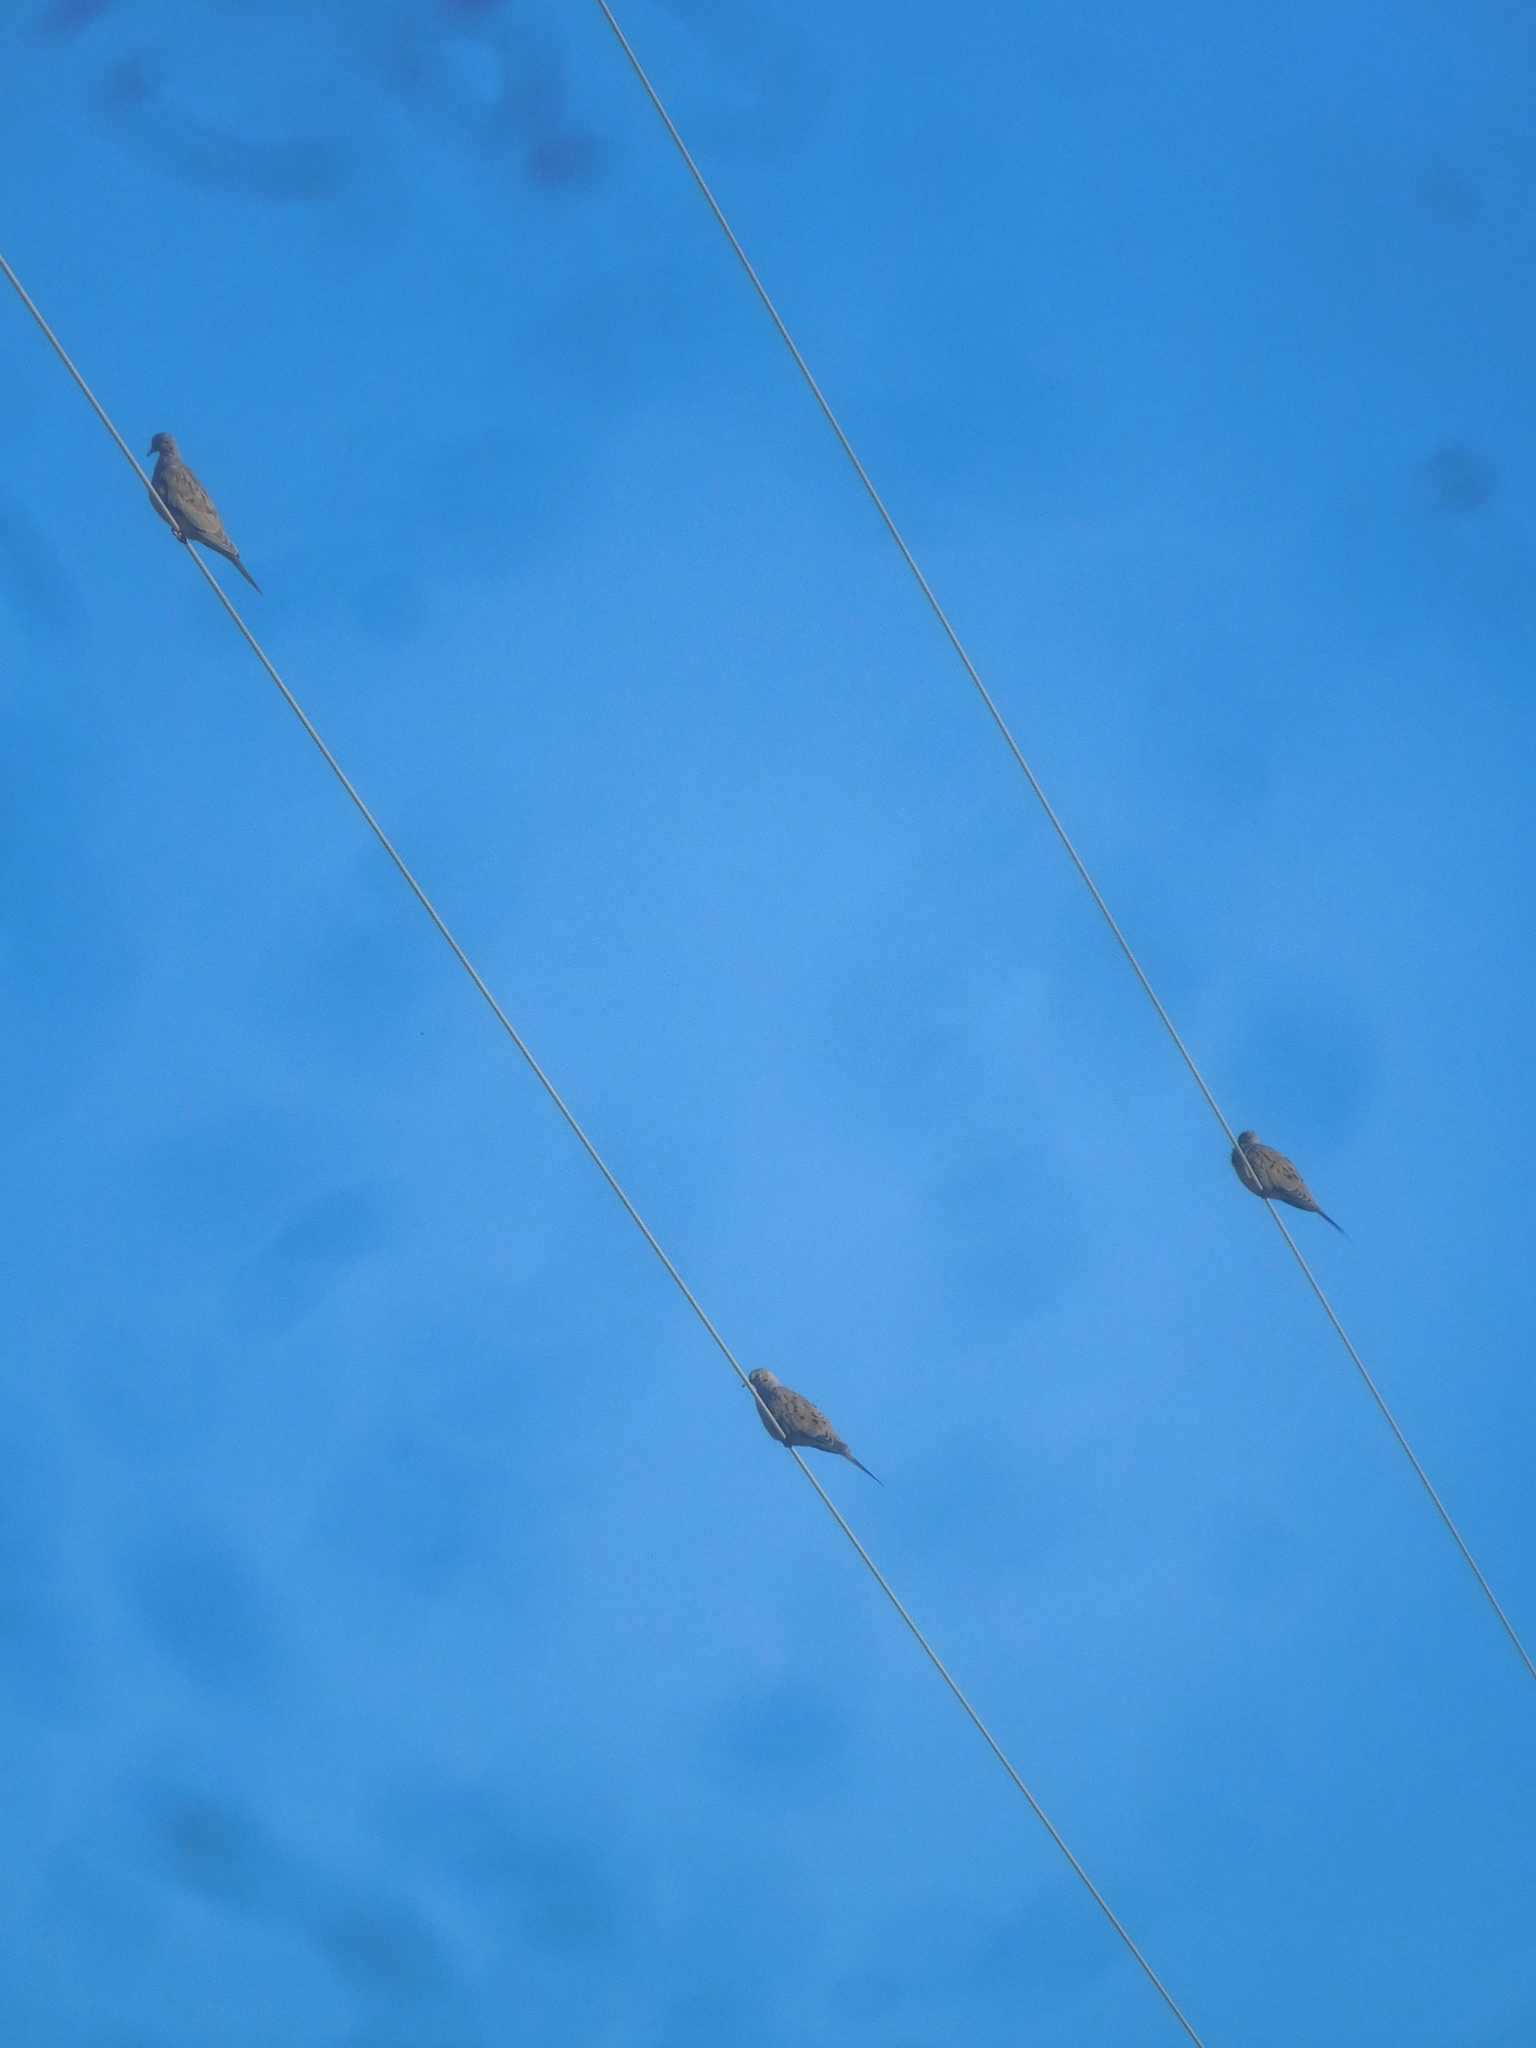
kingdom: Animalia
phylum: Chordata
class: Aves
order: Columbiformes
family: Columbidae
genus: Zenaida
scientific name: Zenaida macroura
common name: Mourning dove
